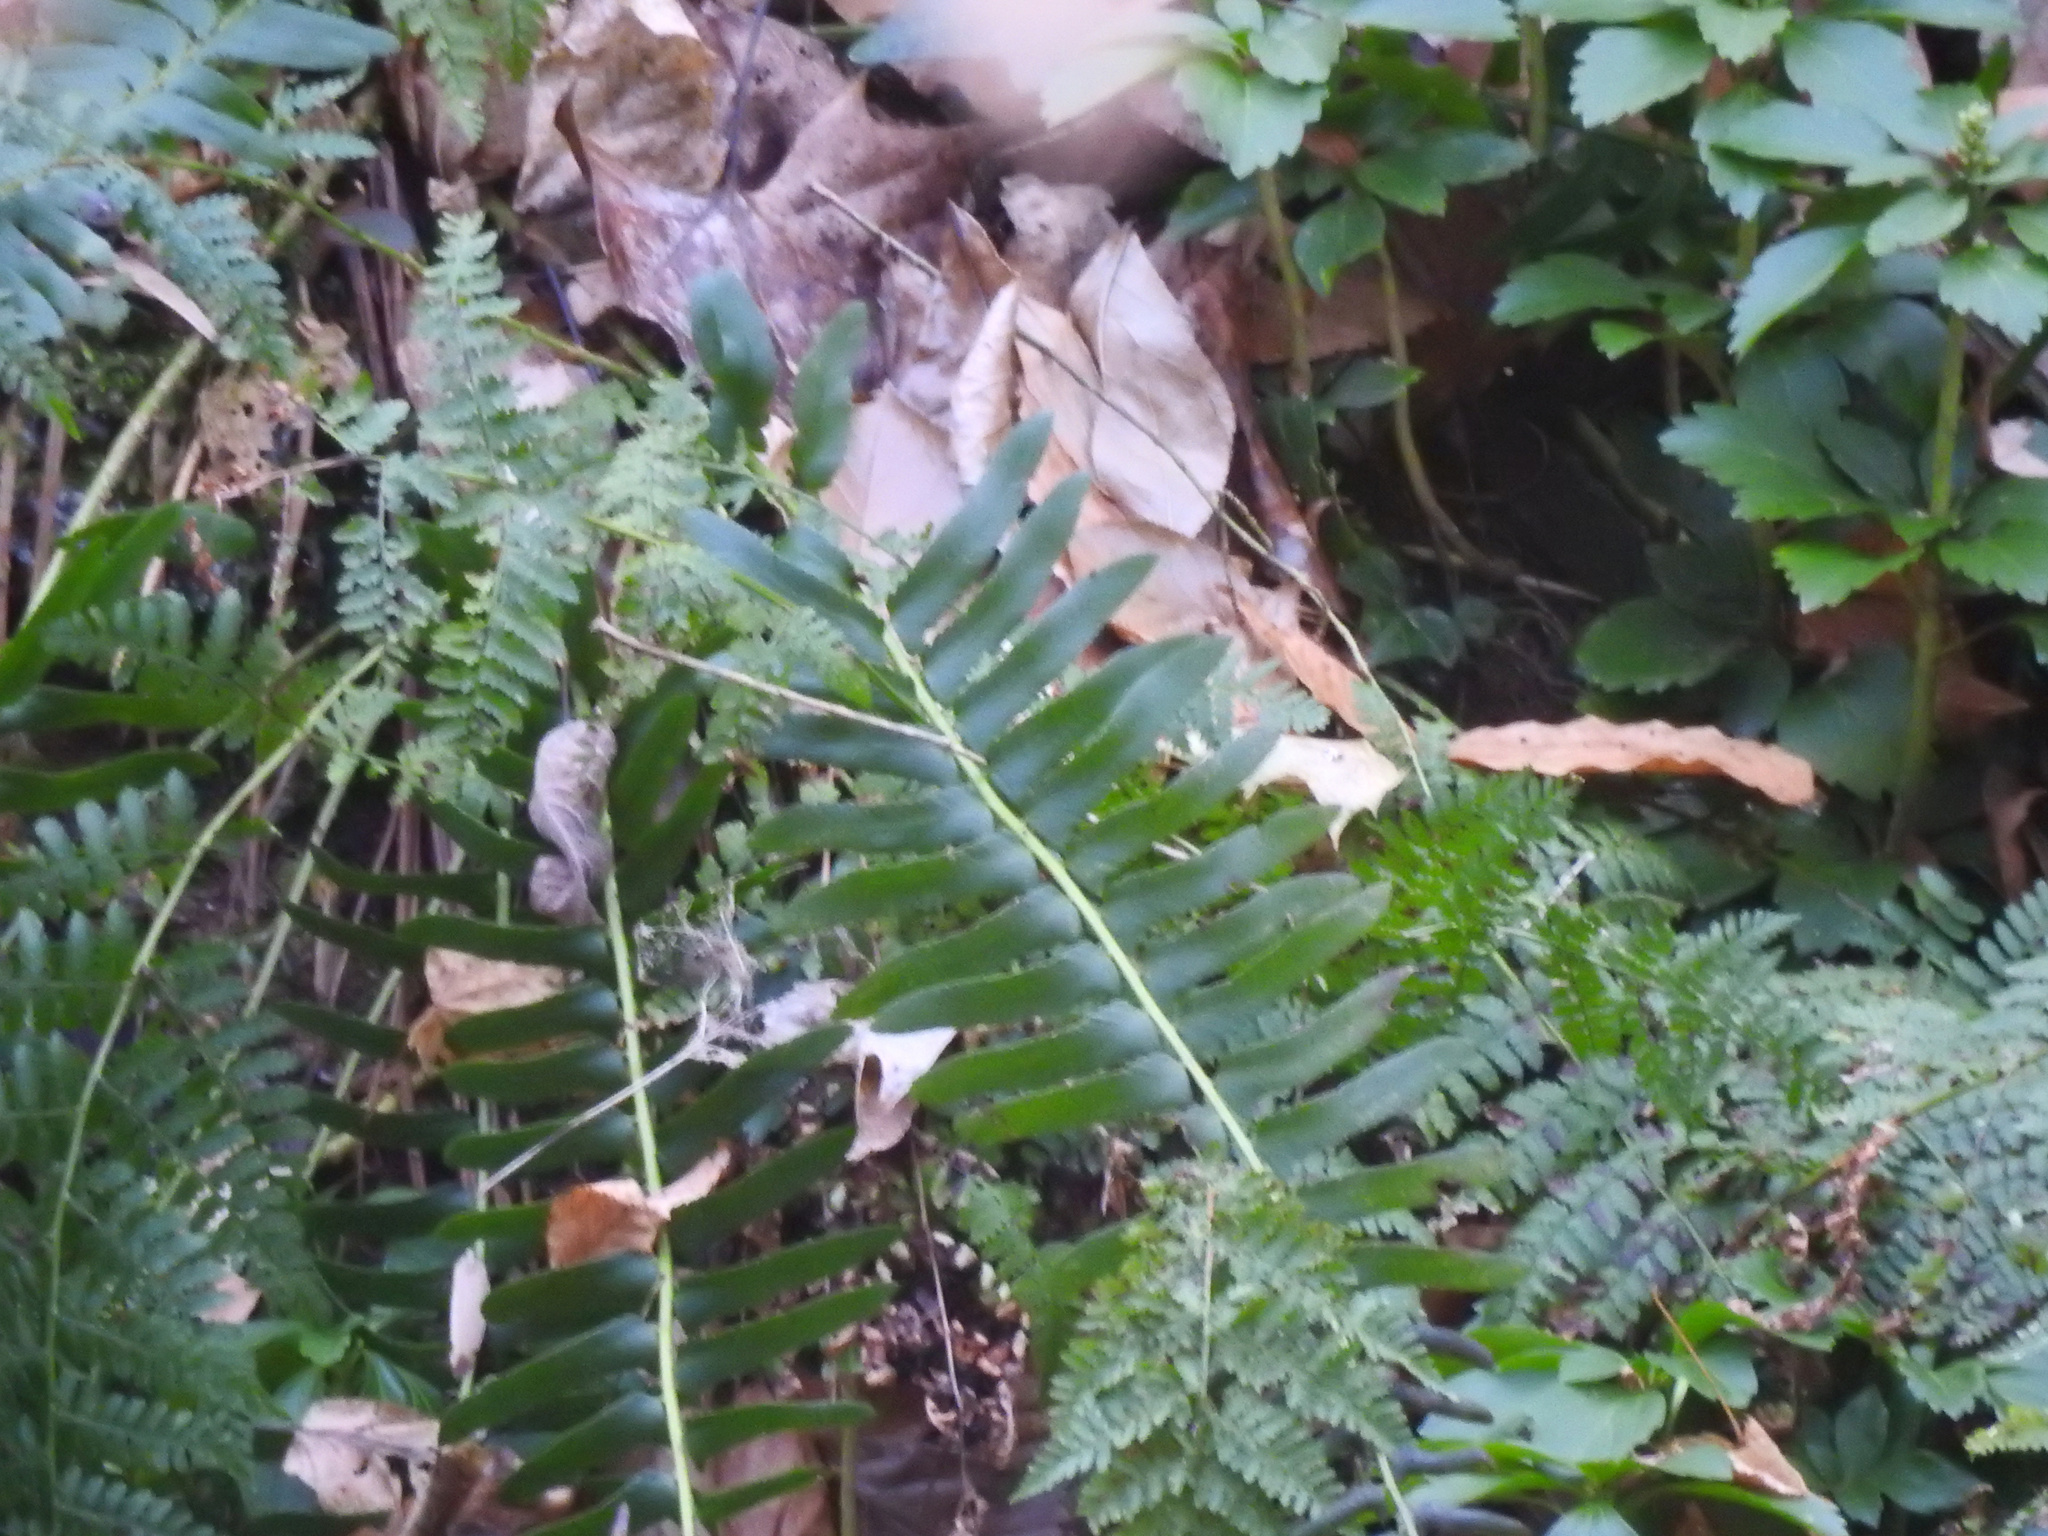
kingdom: Plantae
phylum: Tracheophyta
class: Polypodiopsida
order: Polypodiales
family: Dryopteridaceae
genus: Polystichum
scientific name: Polystichum acrostichoides
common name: Christmas fern
